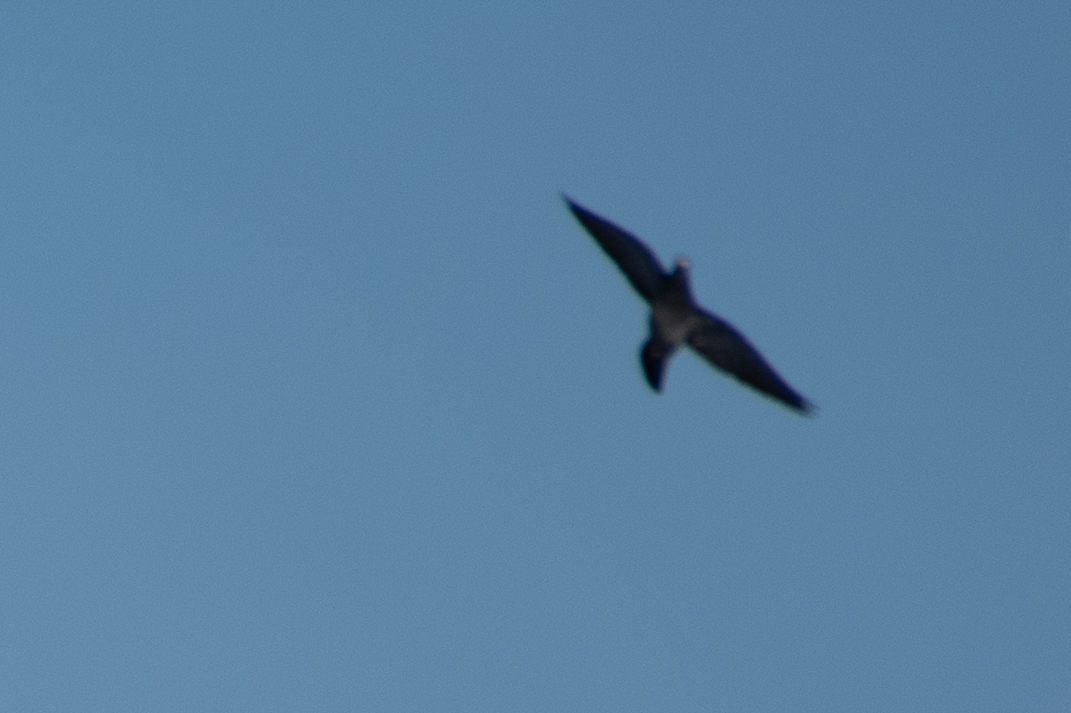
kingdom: Animalia
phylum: Chordata
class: Aves
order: Columbiformes
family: Columbidae
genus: Columba
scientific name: Columba livia
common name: Rock pigeon
